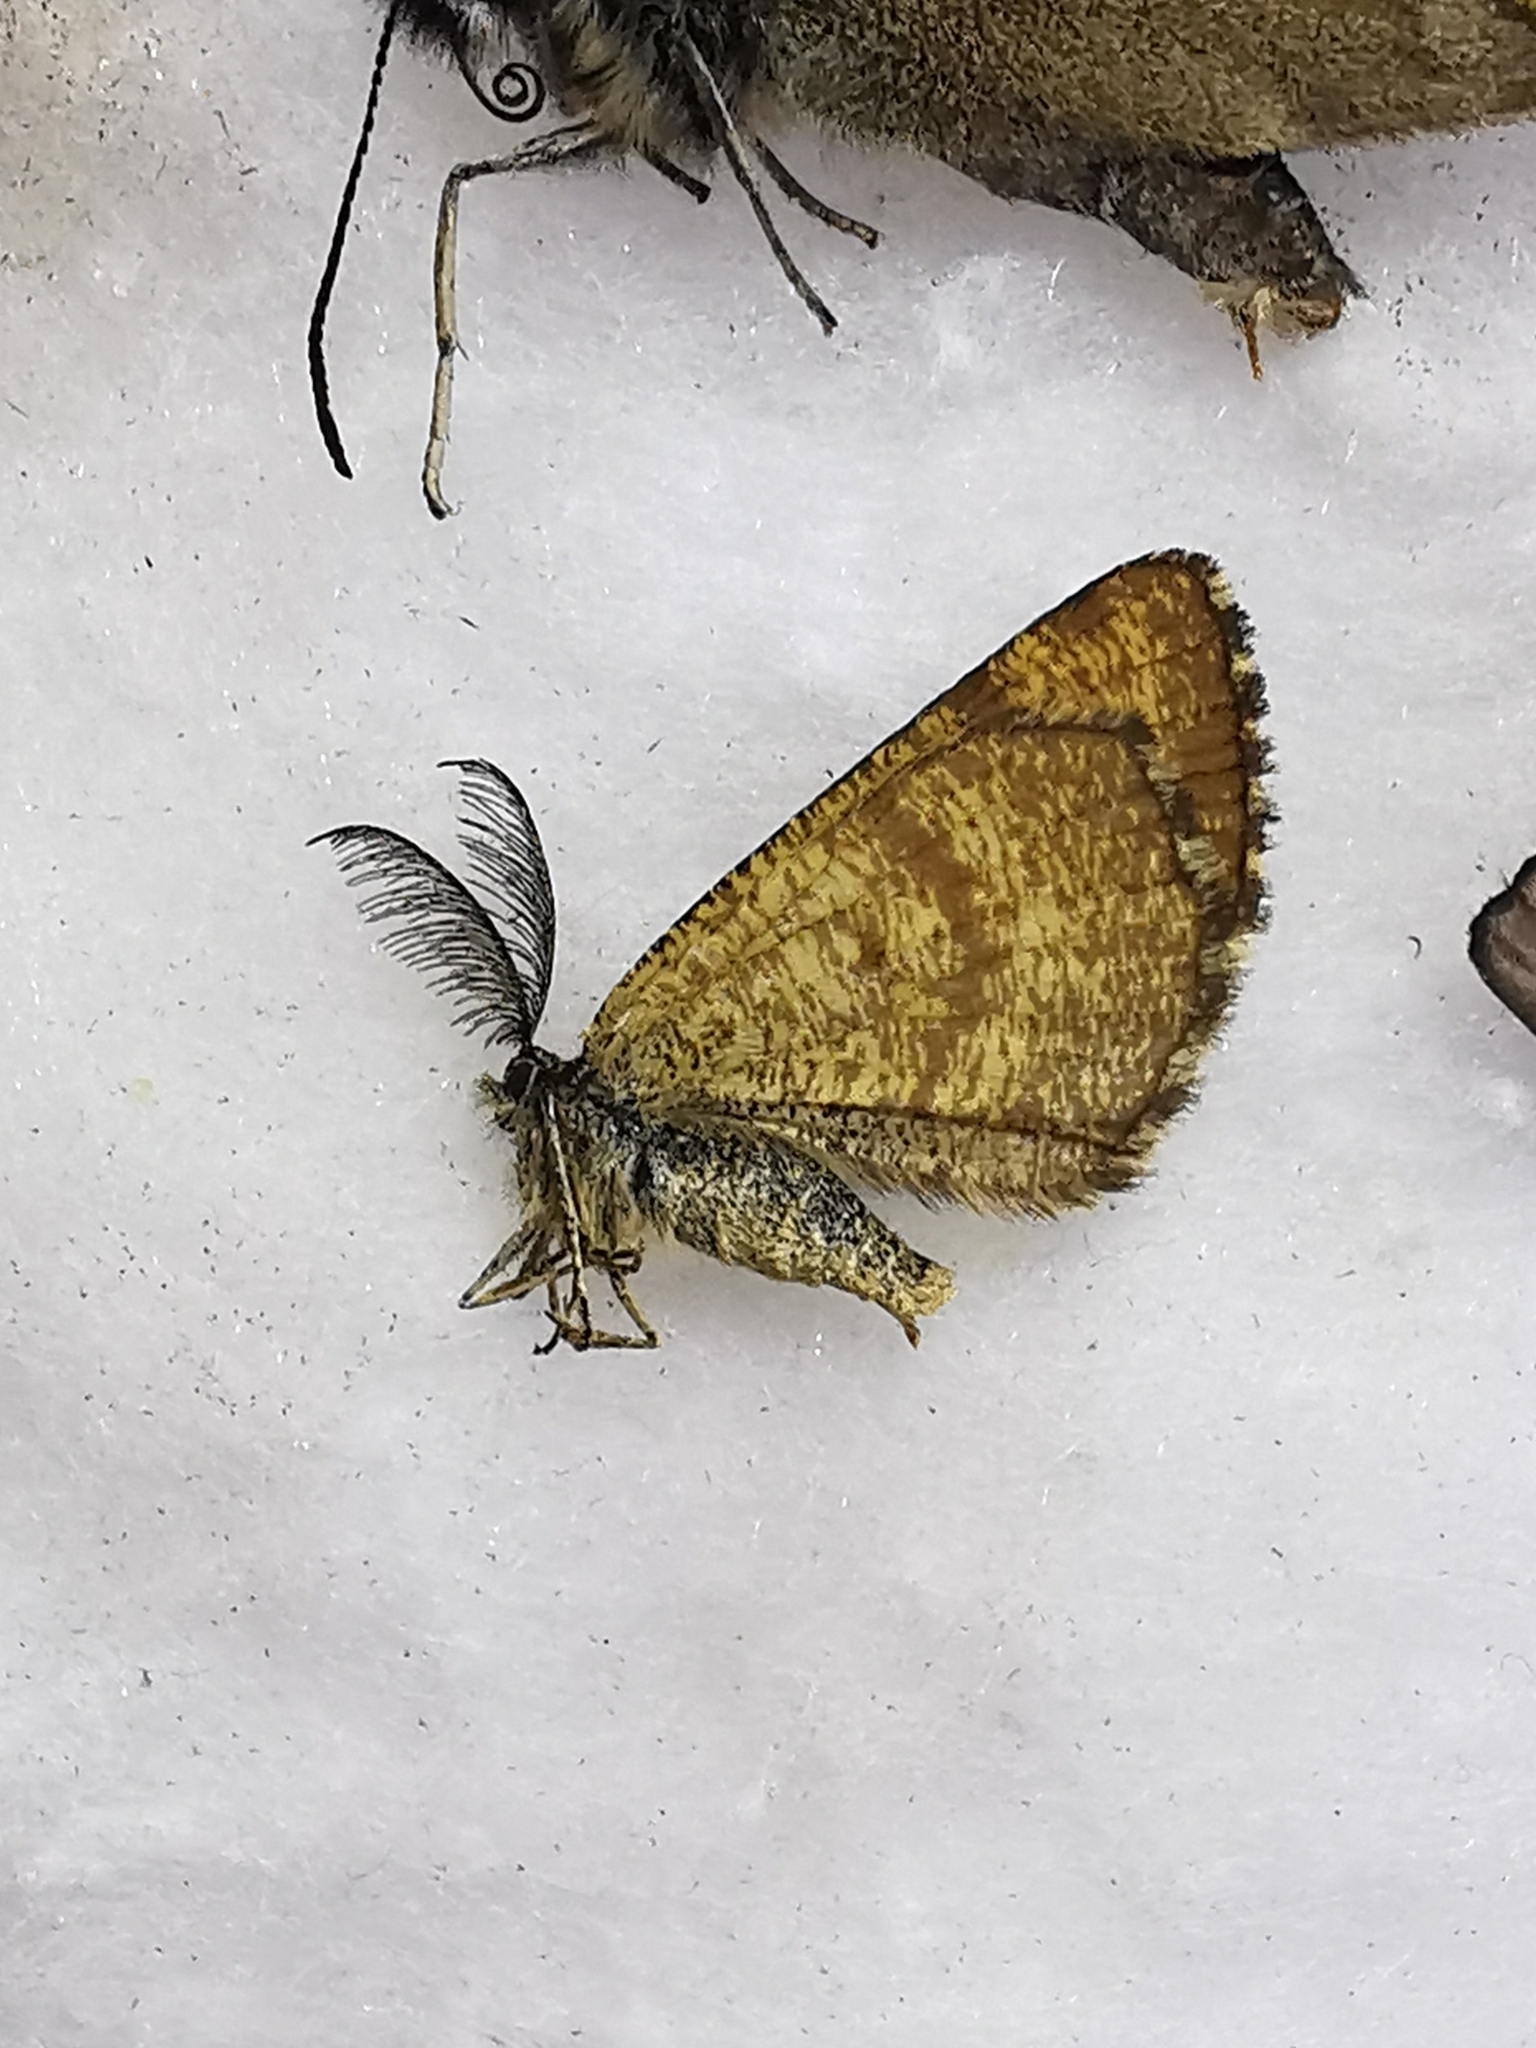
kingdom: Animalia
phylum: Arthropoda
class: Insecta
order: Lepidoptera
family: Geometridae
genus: Ematurga
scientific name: Ematurga atomaria
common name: Common heath
